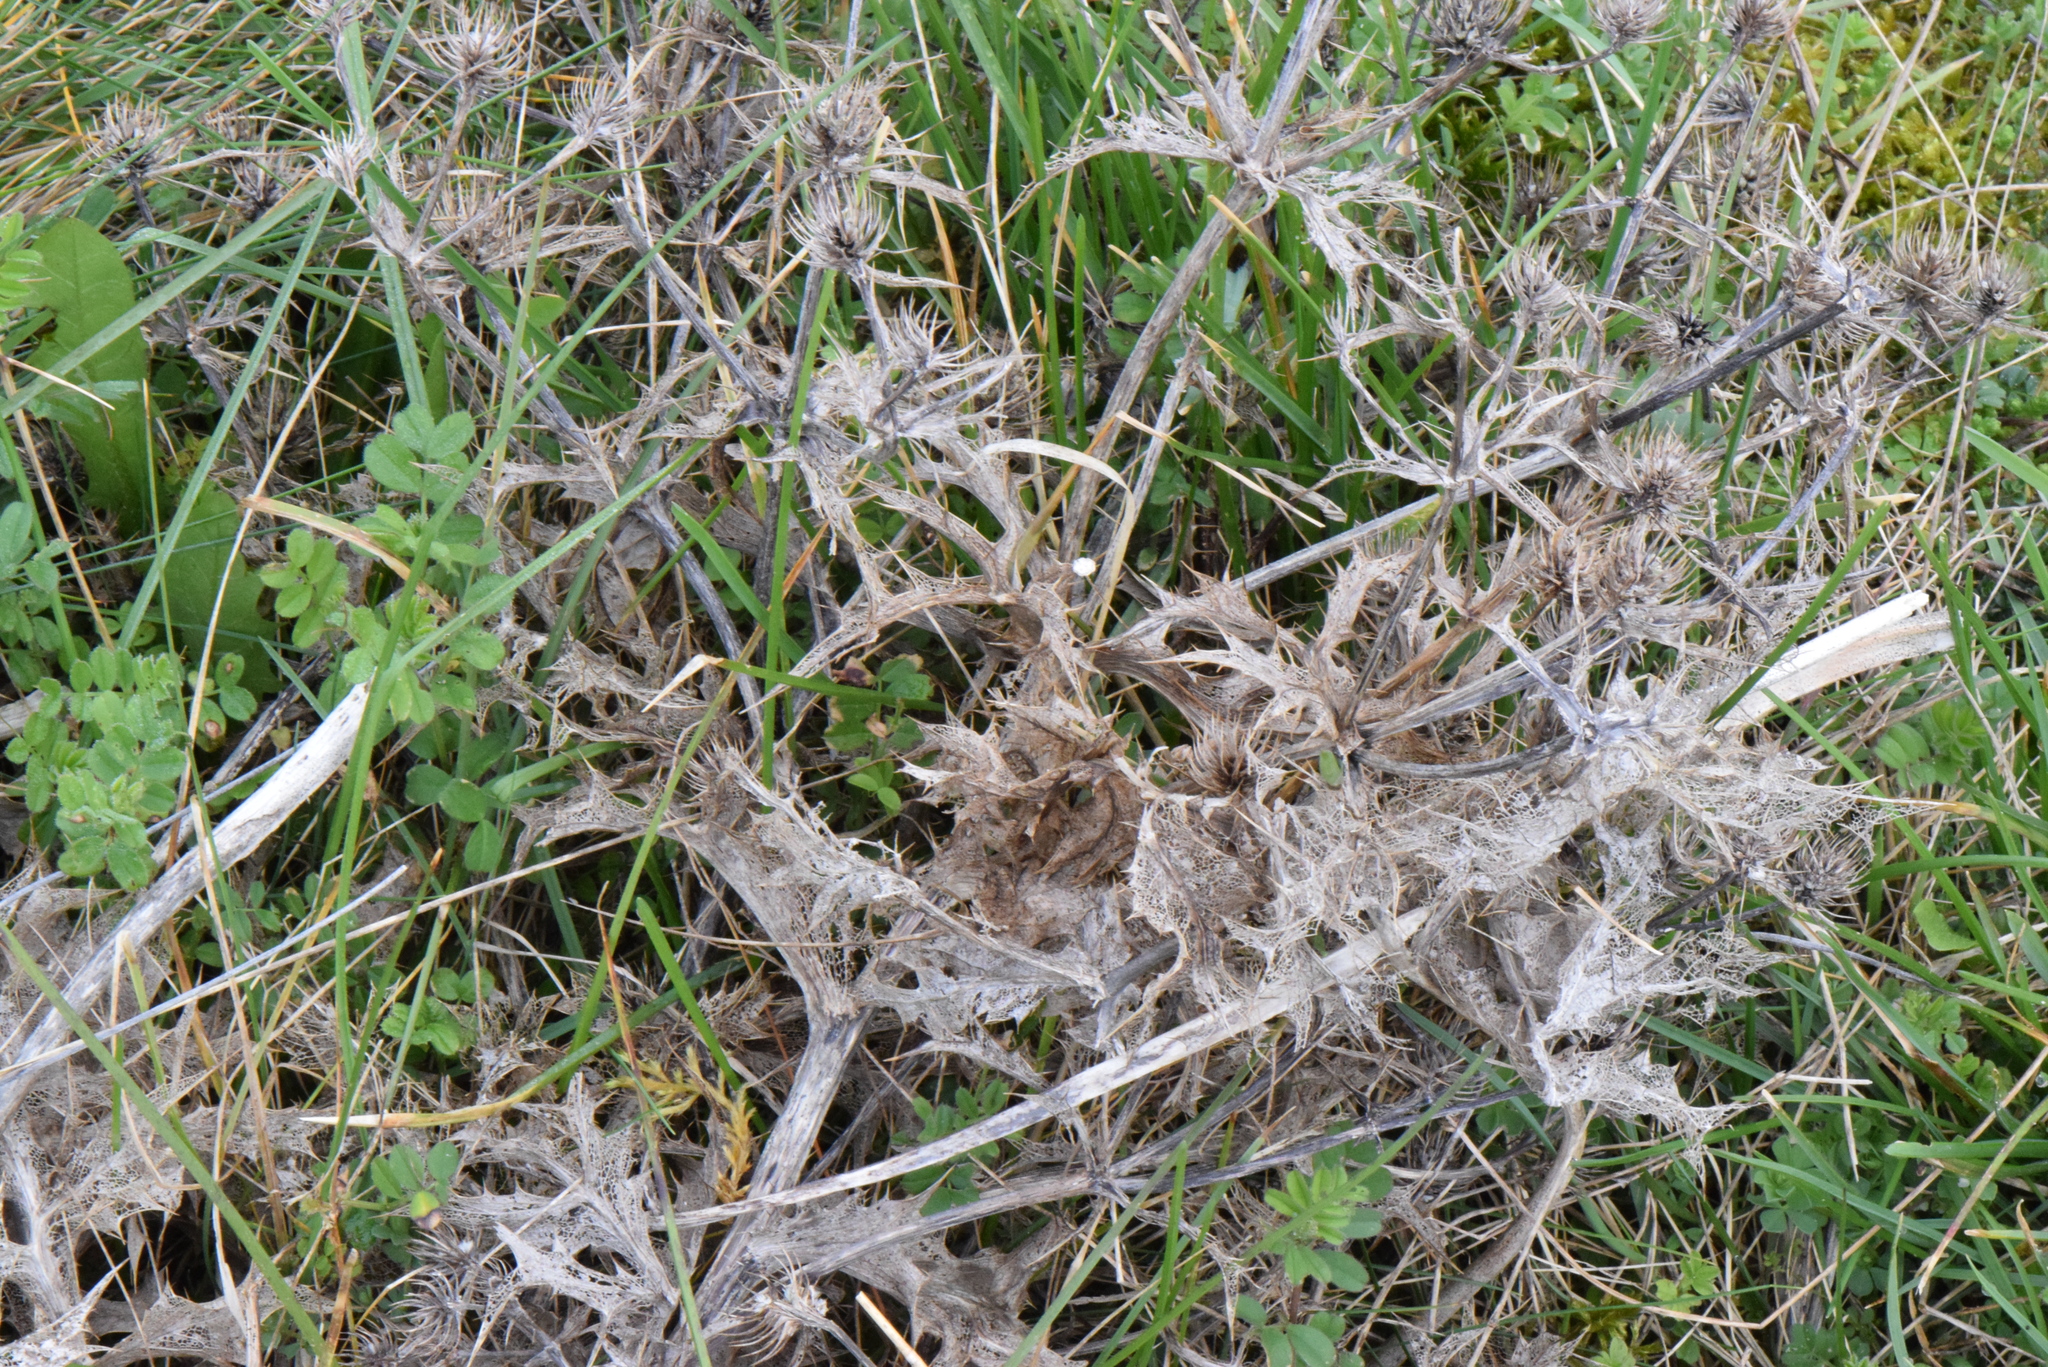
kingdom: Plantae
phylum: Tracheophyta
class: Magnoliopsida
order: Apiales
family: Apiaceae
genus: Eryngium
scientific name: Eryngium campestre
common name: Field eryngo
